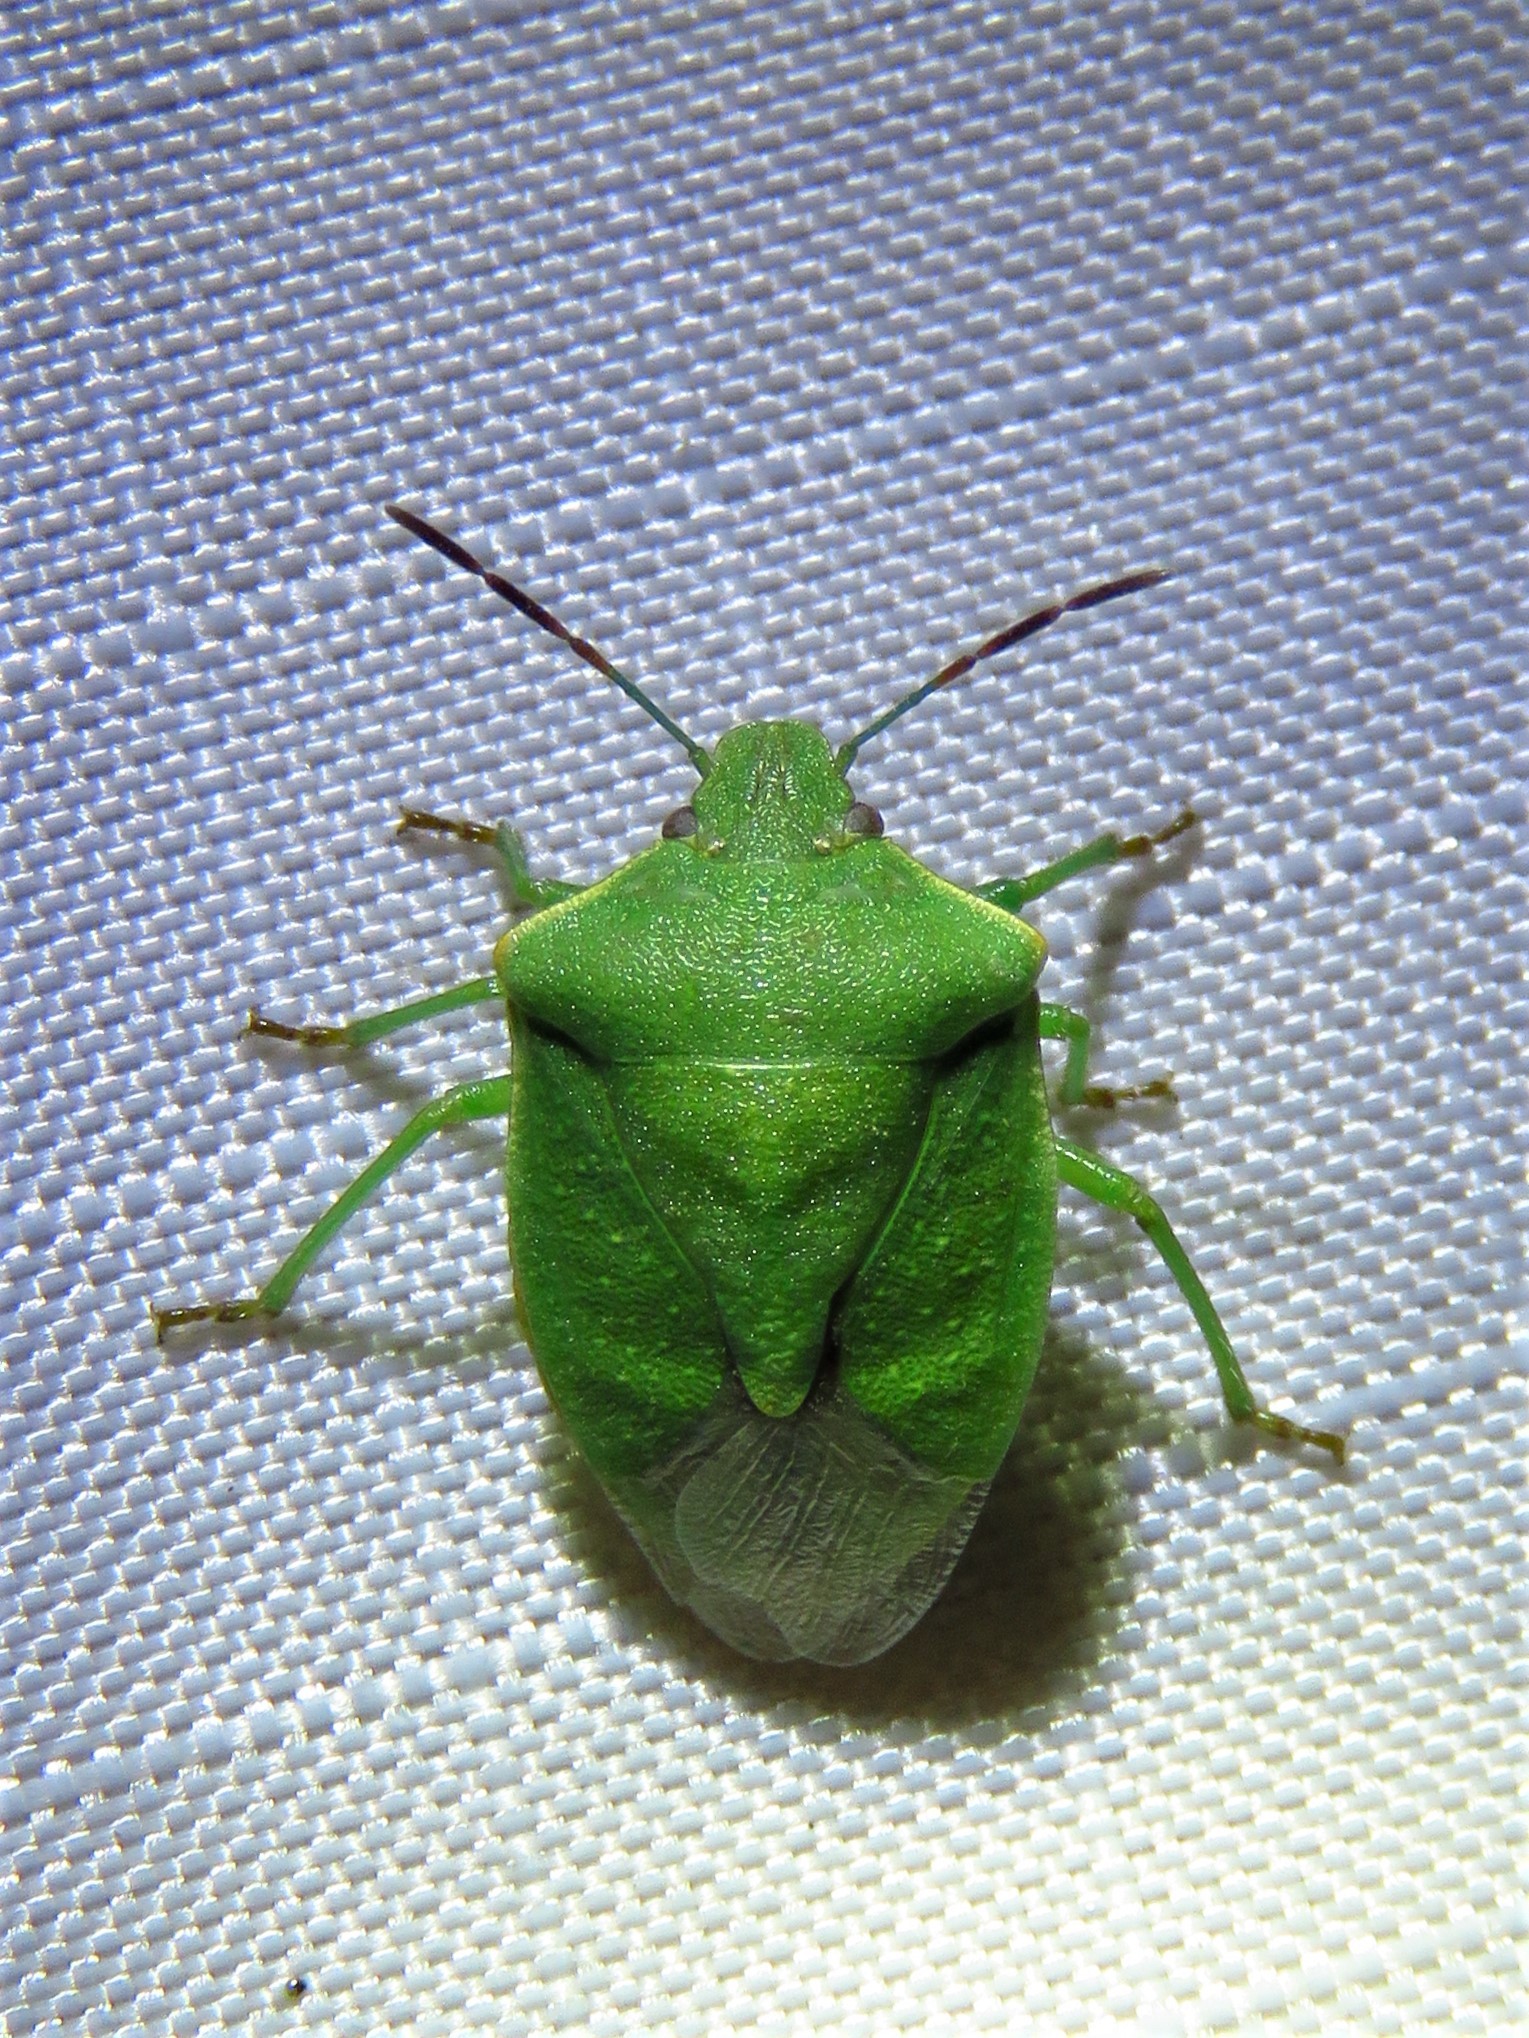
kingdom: Animalia
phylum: Arthropoda
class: Insecta
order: Hemiptera
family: Pentatomidae
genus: Thyanta
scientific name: Thyanta custator
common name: Stink bug
